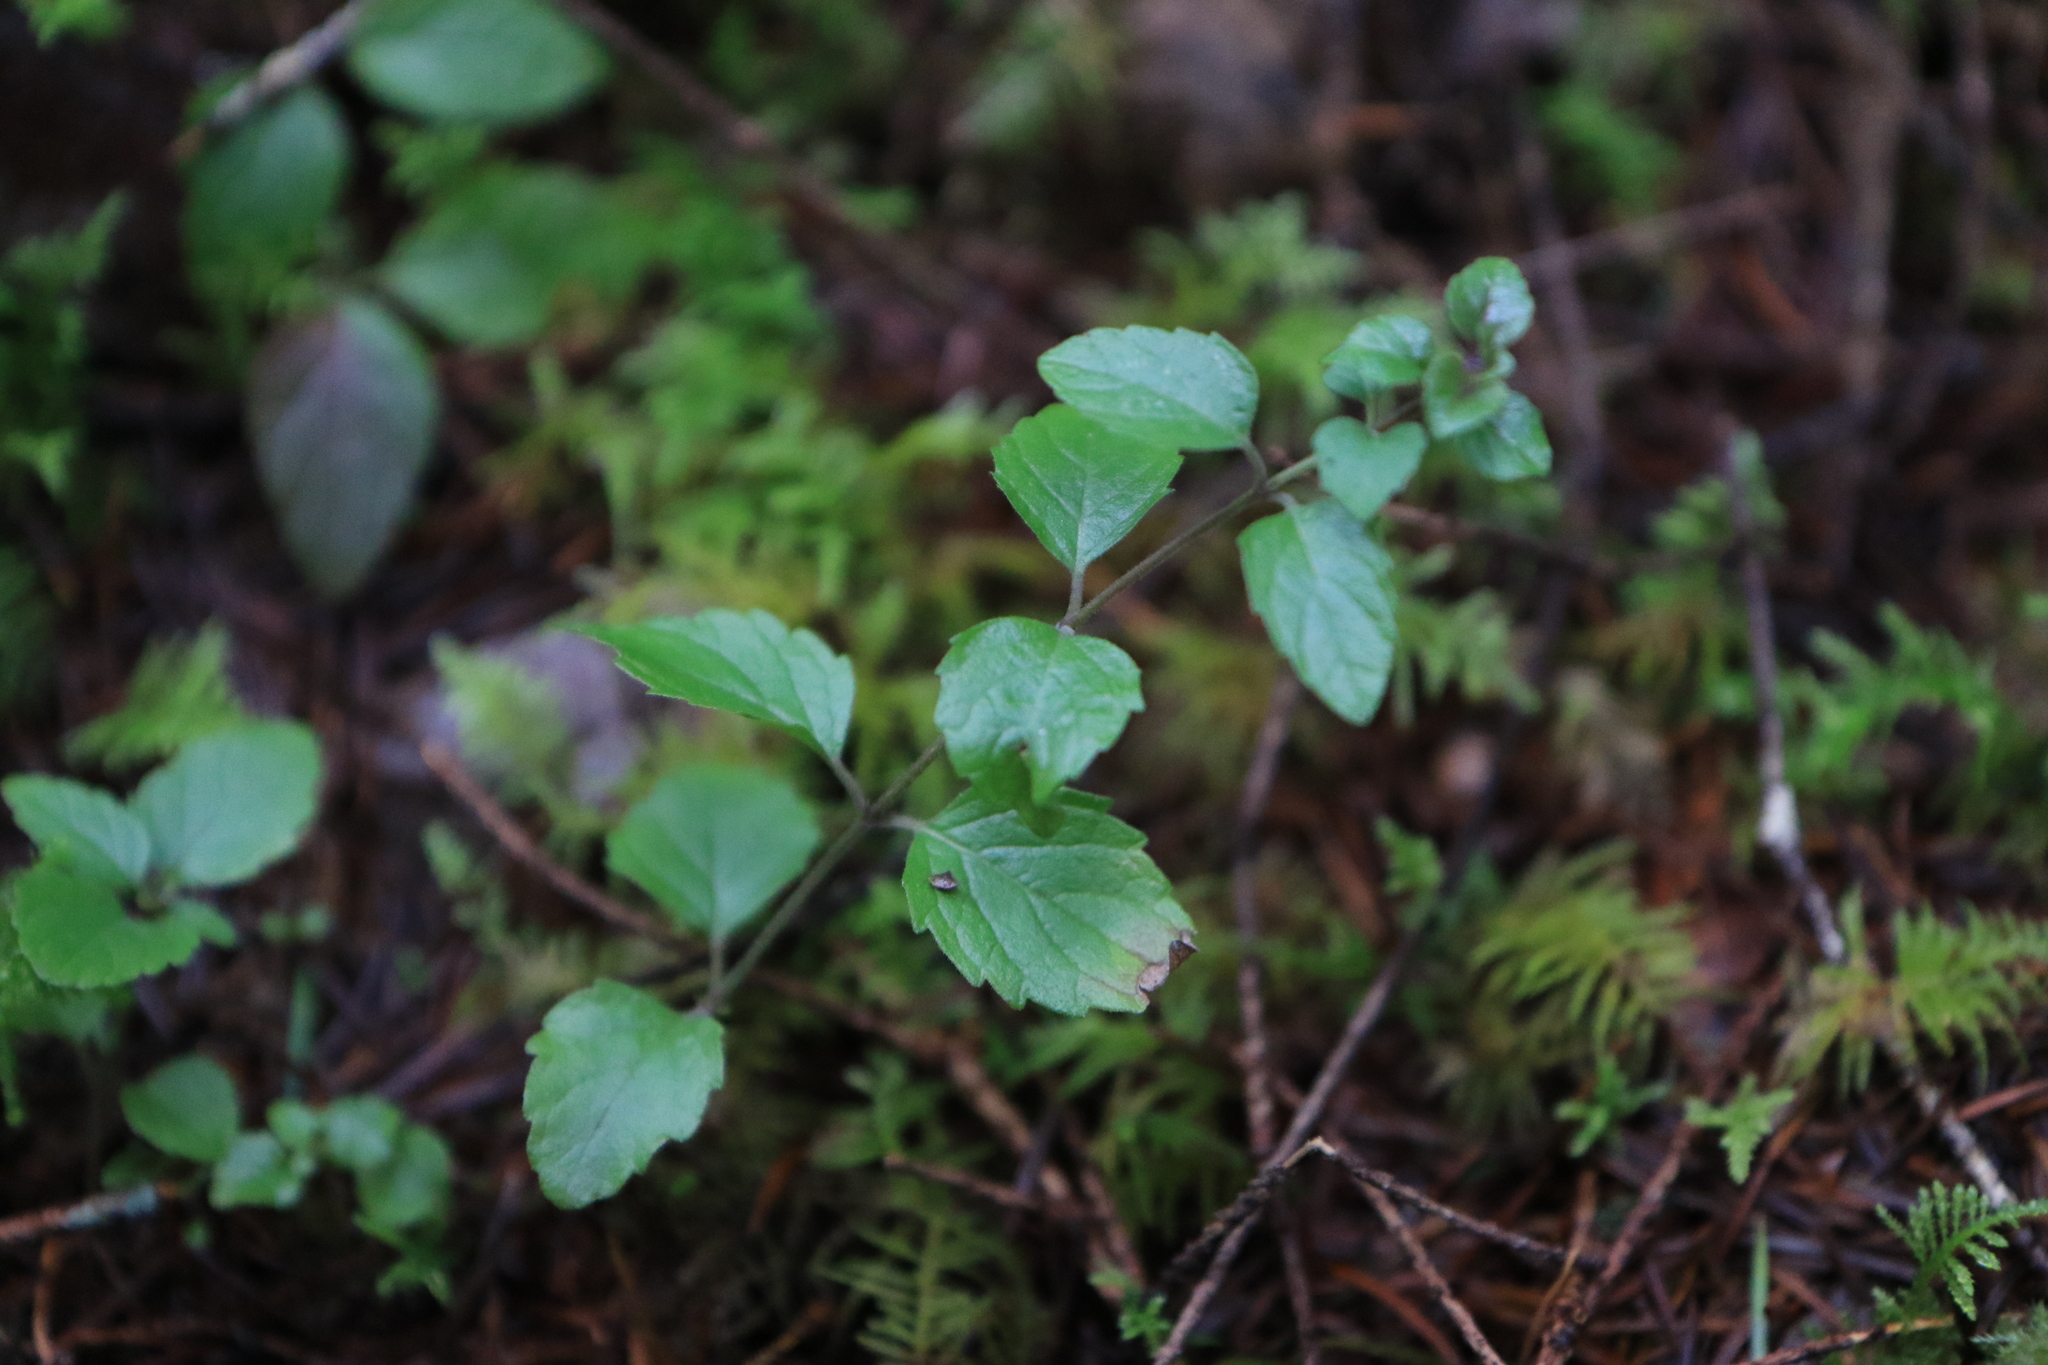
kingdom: Plantae
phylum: Tracheophyta
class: Magnoliopsida
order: Lamiales
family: Lamiaceae
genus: Micromeria
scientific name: Micromeria douglasii
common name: Yerba buena
